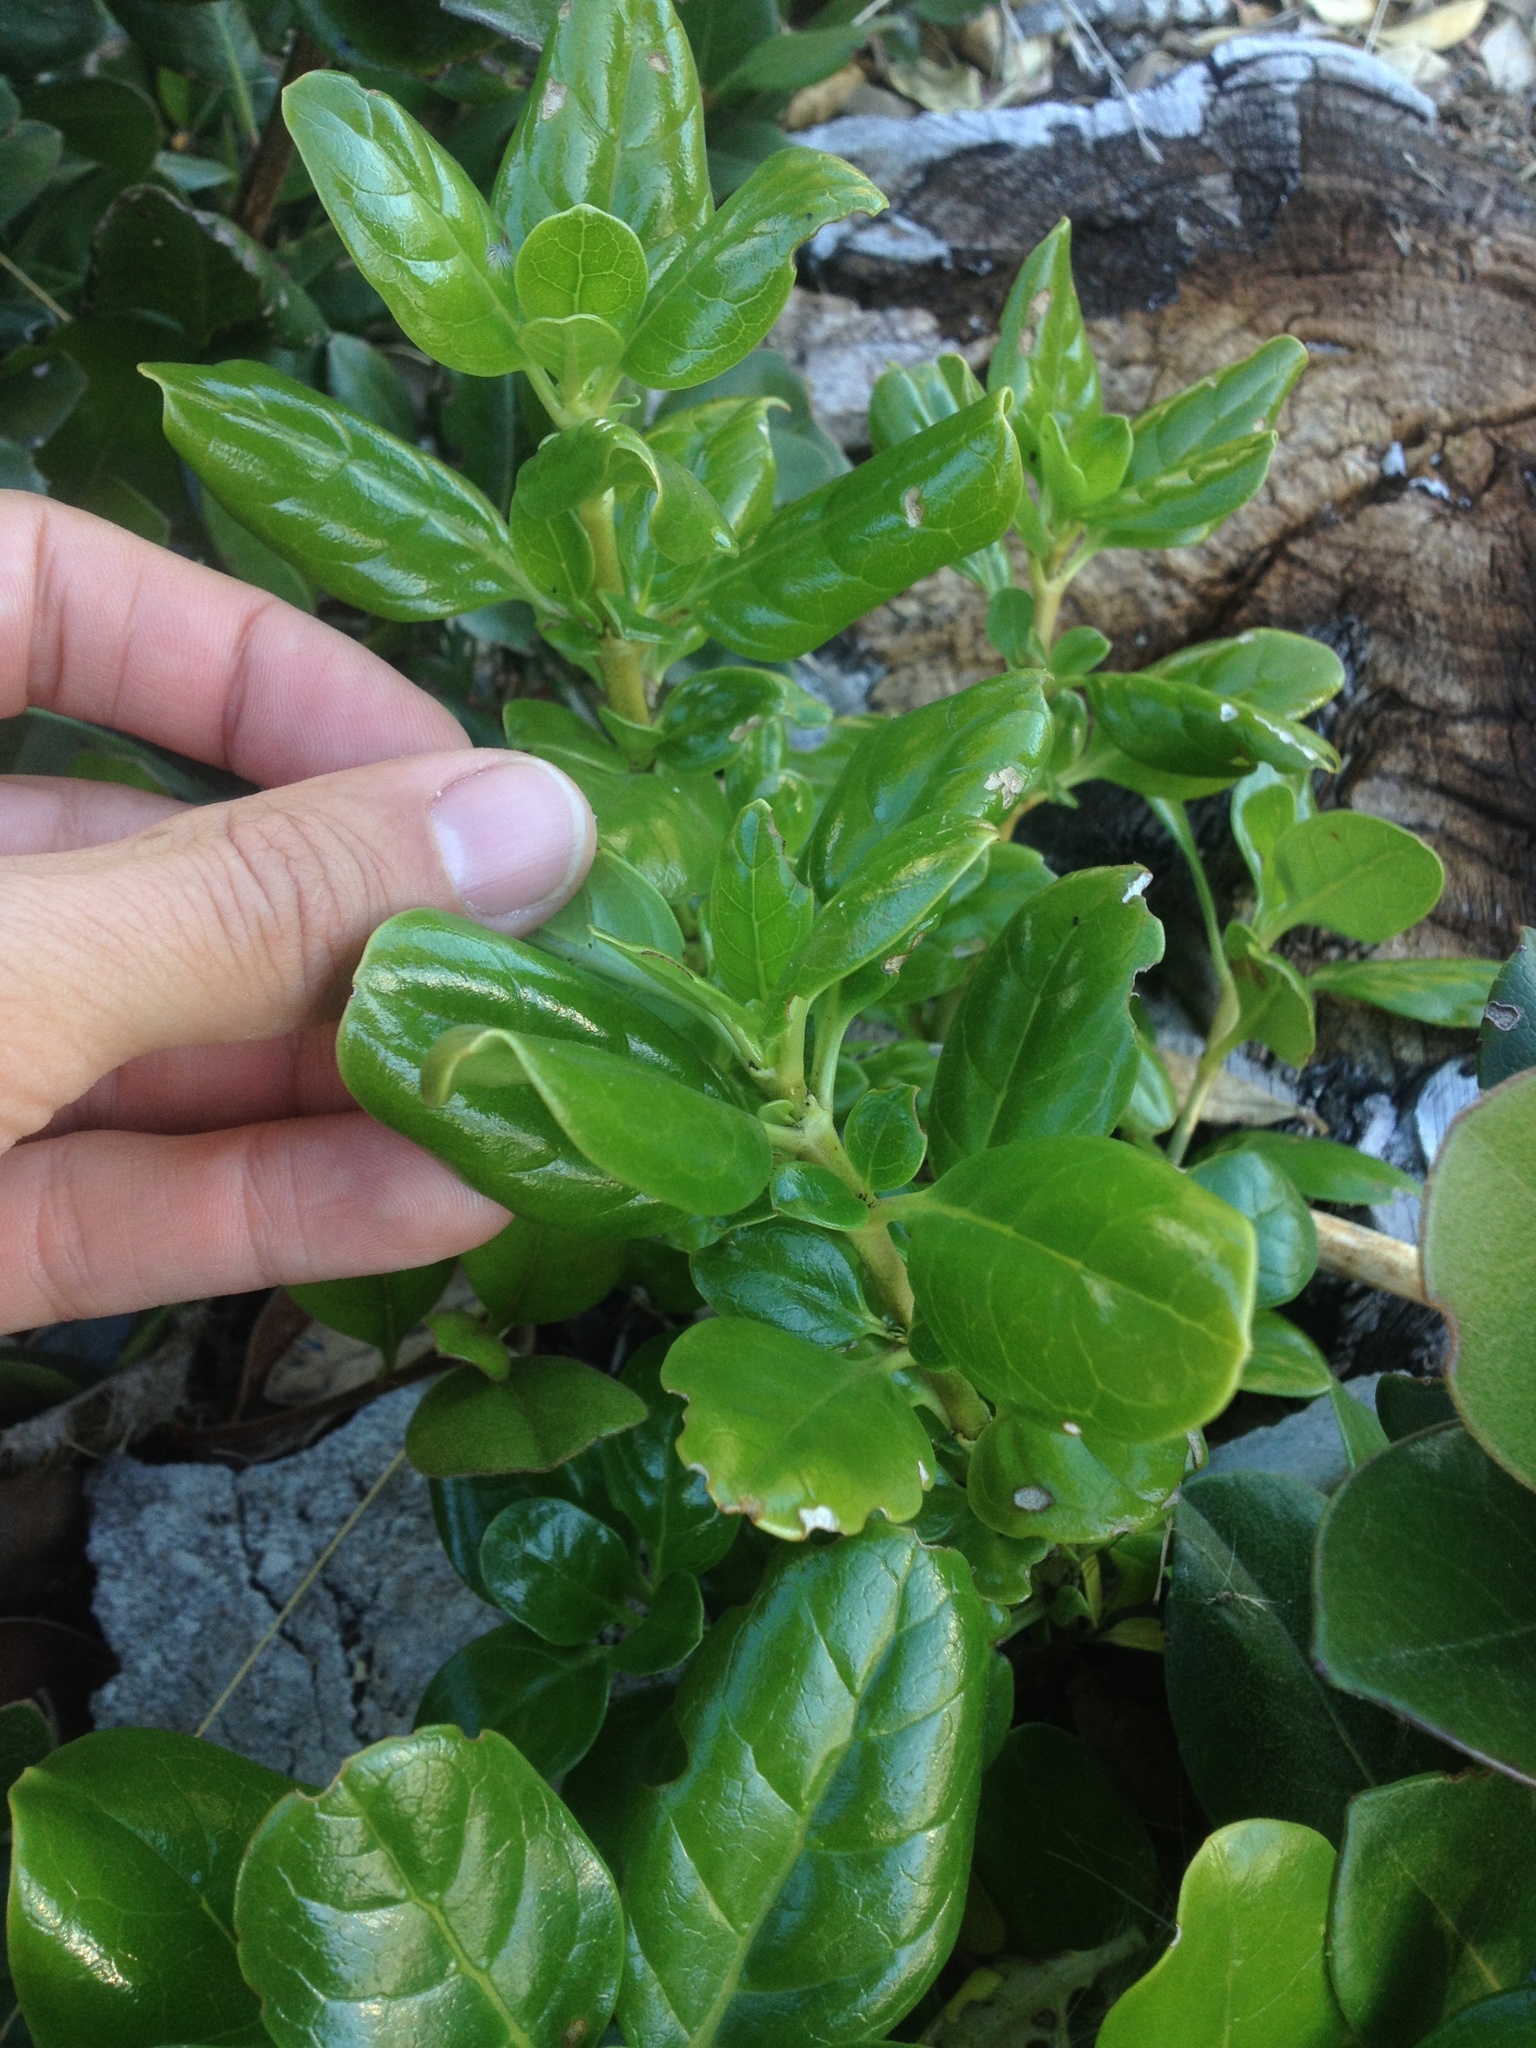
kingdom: Plantae
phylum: Tracheophyta
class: Magnoliopsida
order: Gentianales
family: Rubiaceae
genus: Coprosma
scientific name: Coprosma repens
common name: Tree bedstraw
